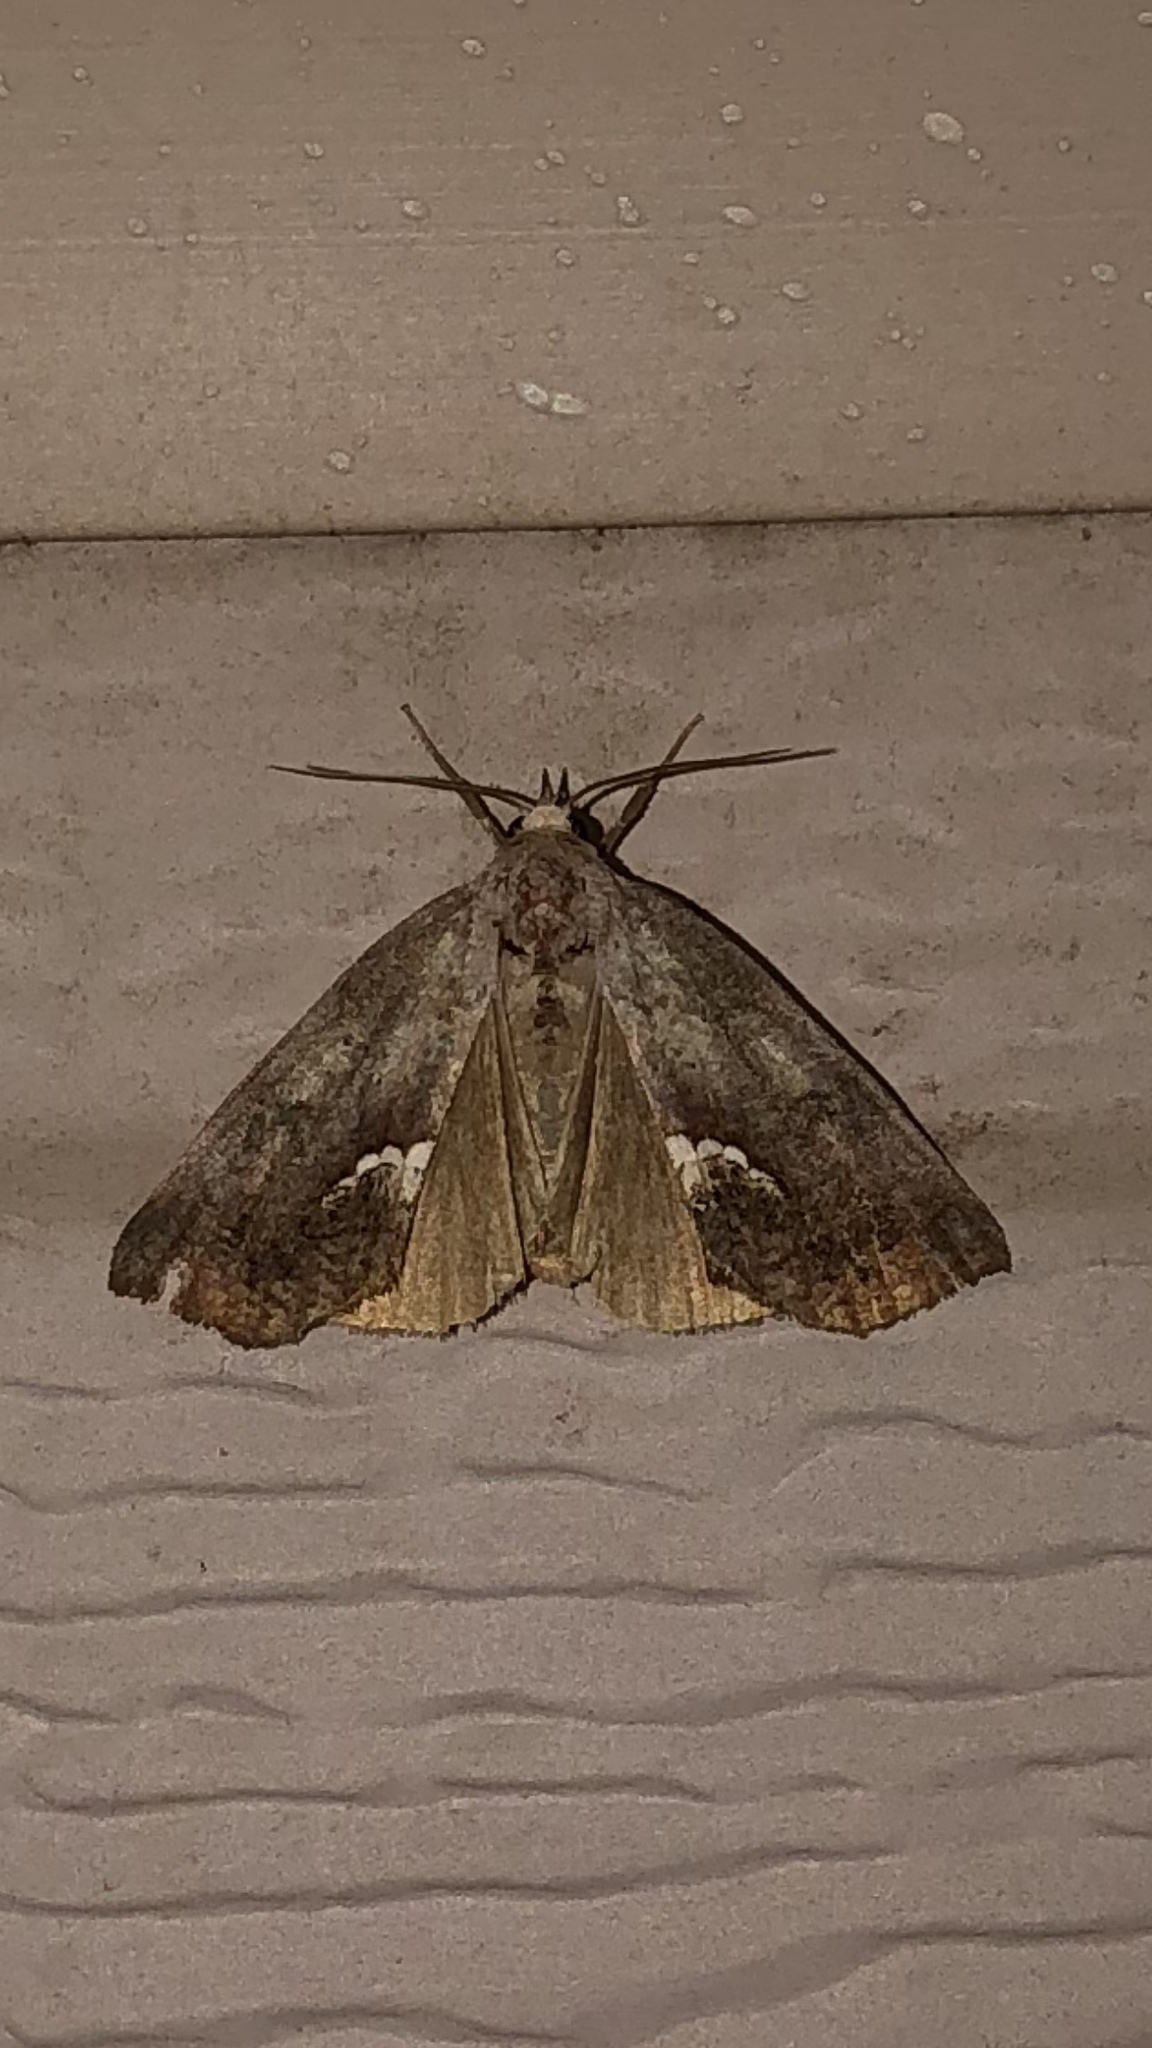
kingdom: Animalia
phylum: Arthropoda
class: Insecta
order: Lepidoptera
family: Erebidae
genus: Hypsoropha
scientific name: Hypsoropha hormos
